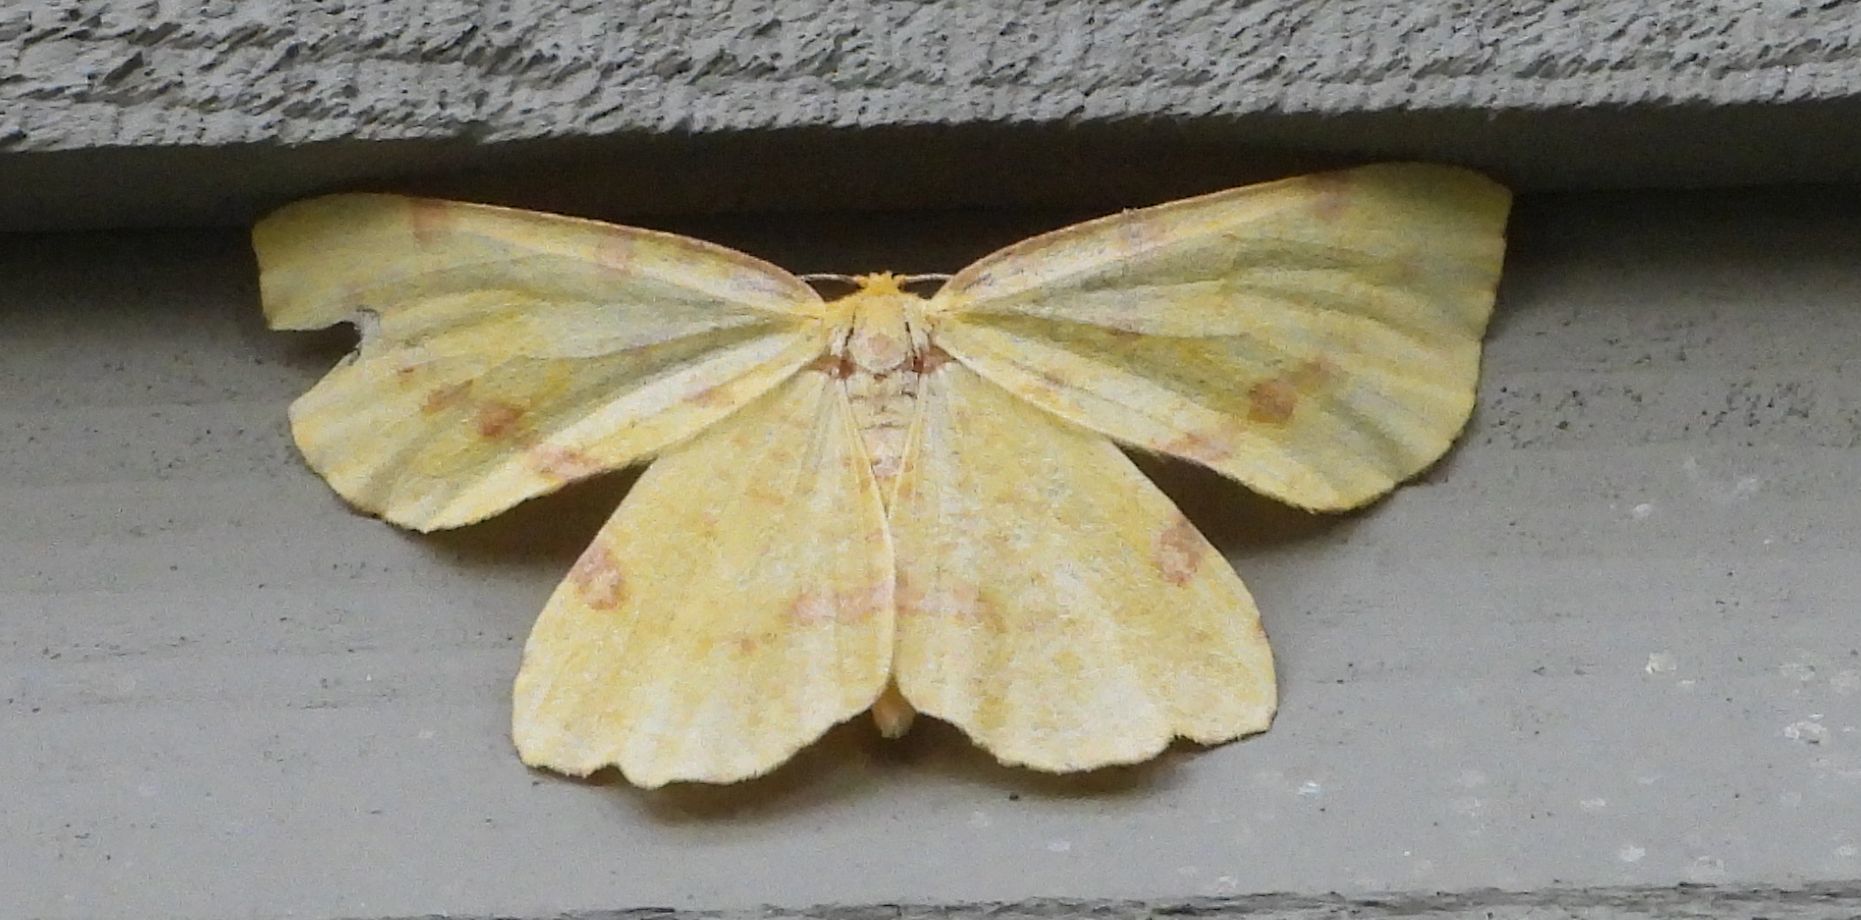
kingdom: Animalia
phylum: Arthropoda
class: Insecta
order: Lepidoptera
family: Geometridae
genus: Xanthotype
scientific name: Xanthotype
